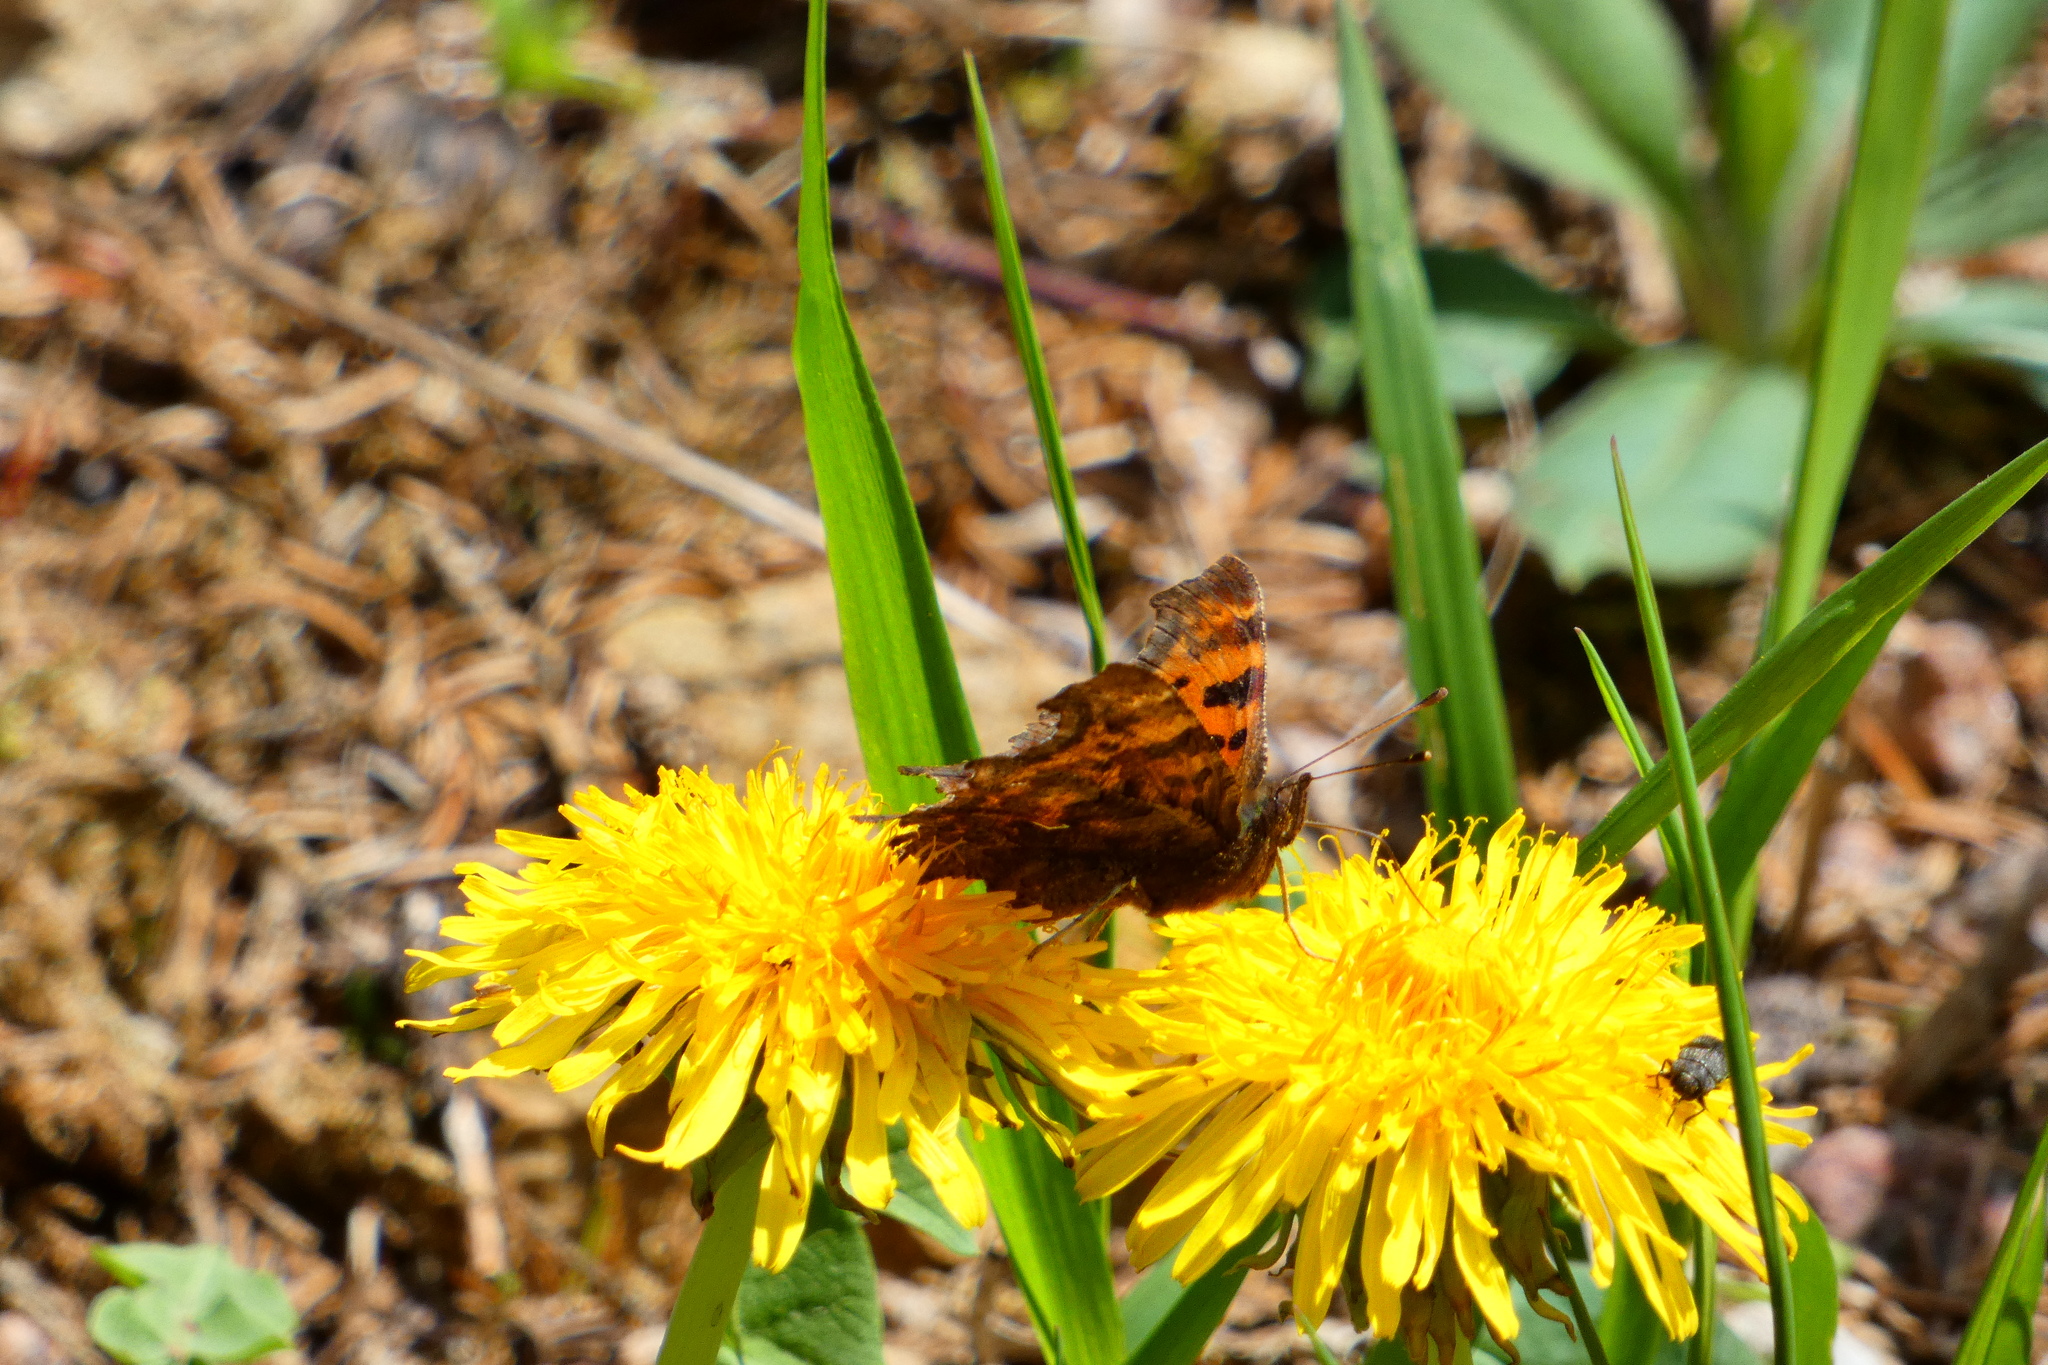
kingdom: Animalia
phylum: Arthropoda
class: Insecta
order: Lepidoptera
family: Nymphalidae
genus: Polygonia
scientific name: Polygonia c-album
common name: Comma
